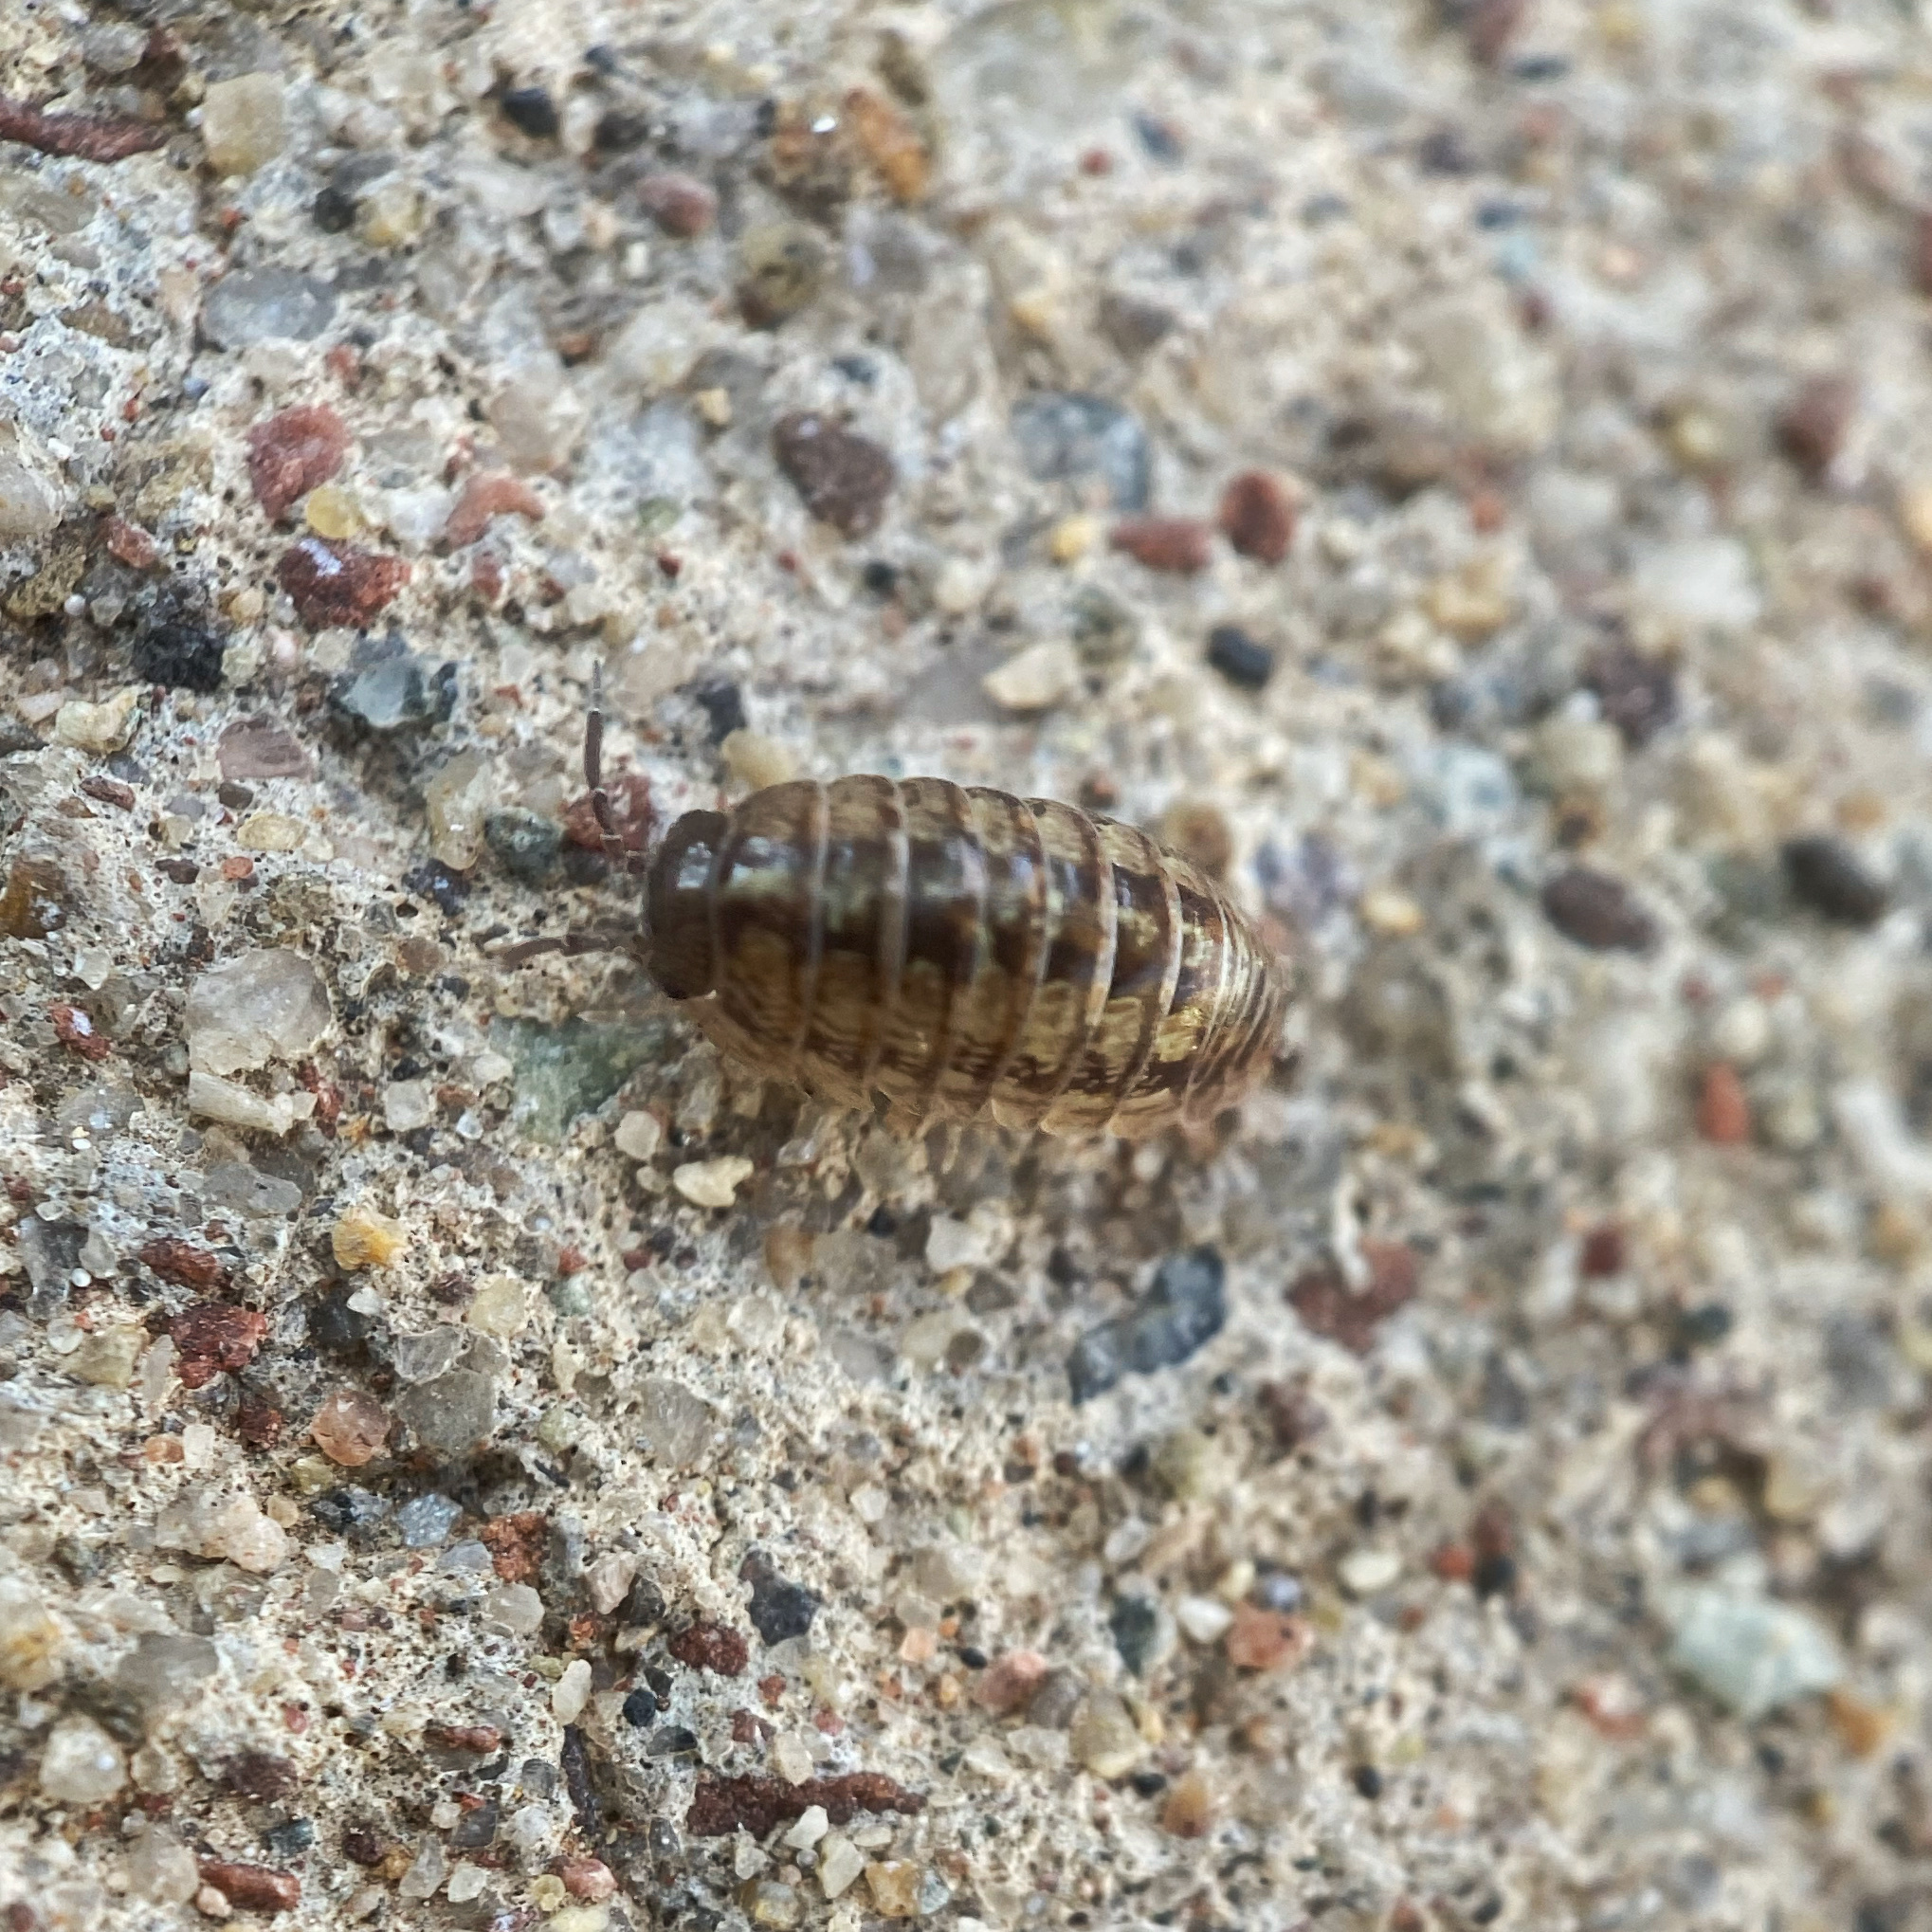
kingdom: Animalia
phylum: Arthropoda
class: Malacostraca
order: Isopoda
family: Armadillidiidae
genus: Armadillidium
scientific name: Armadillidium vulgare
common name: Common pill woodlouse
